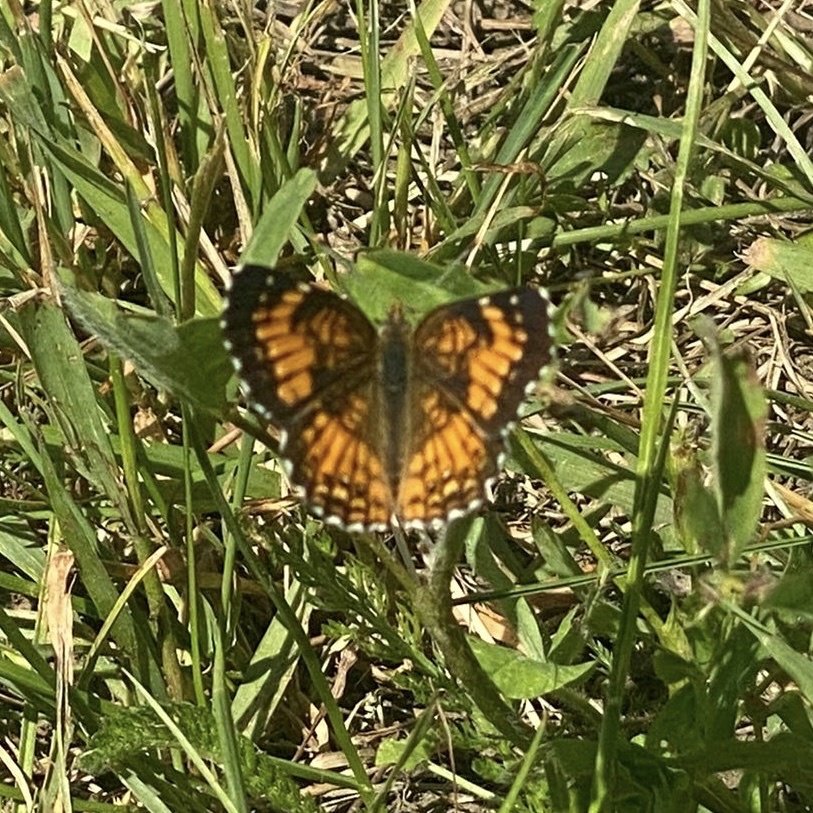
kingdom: Animalia
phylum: Arthropoda
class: Insecta
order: Lepidoptera
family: Nymphalidae
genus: Chlosyne
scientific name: Chlosyne harrisii
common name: Harris's checkerspot
